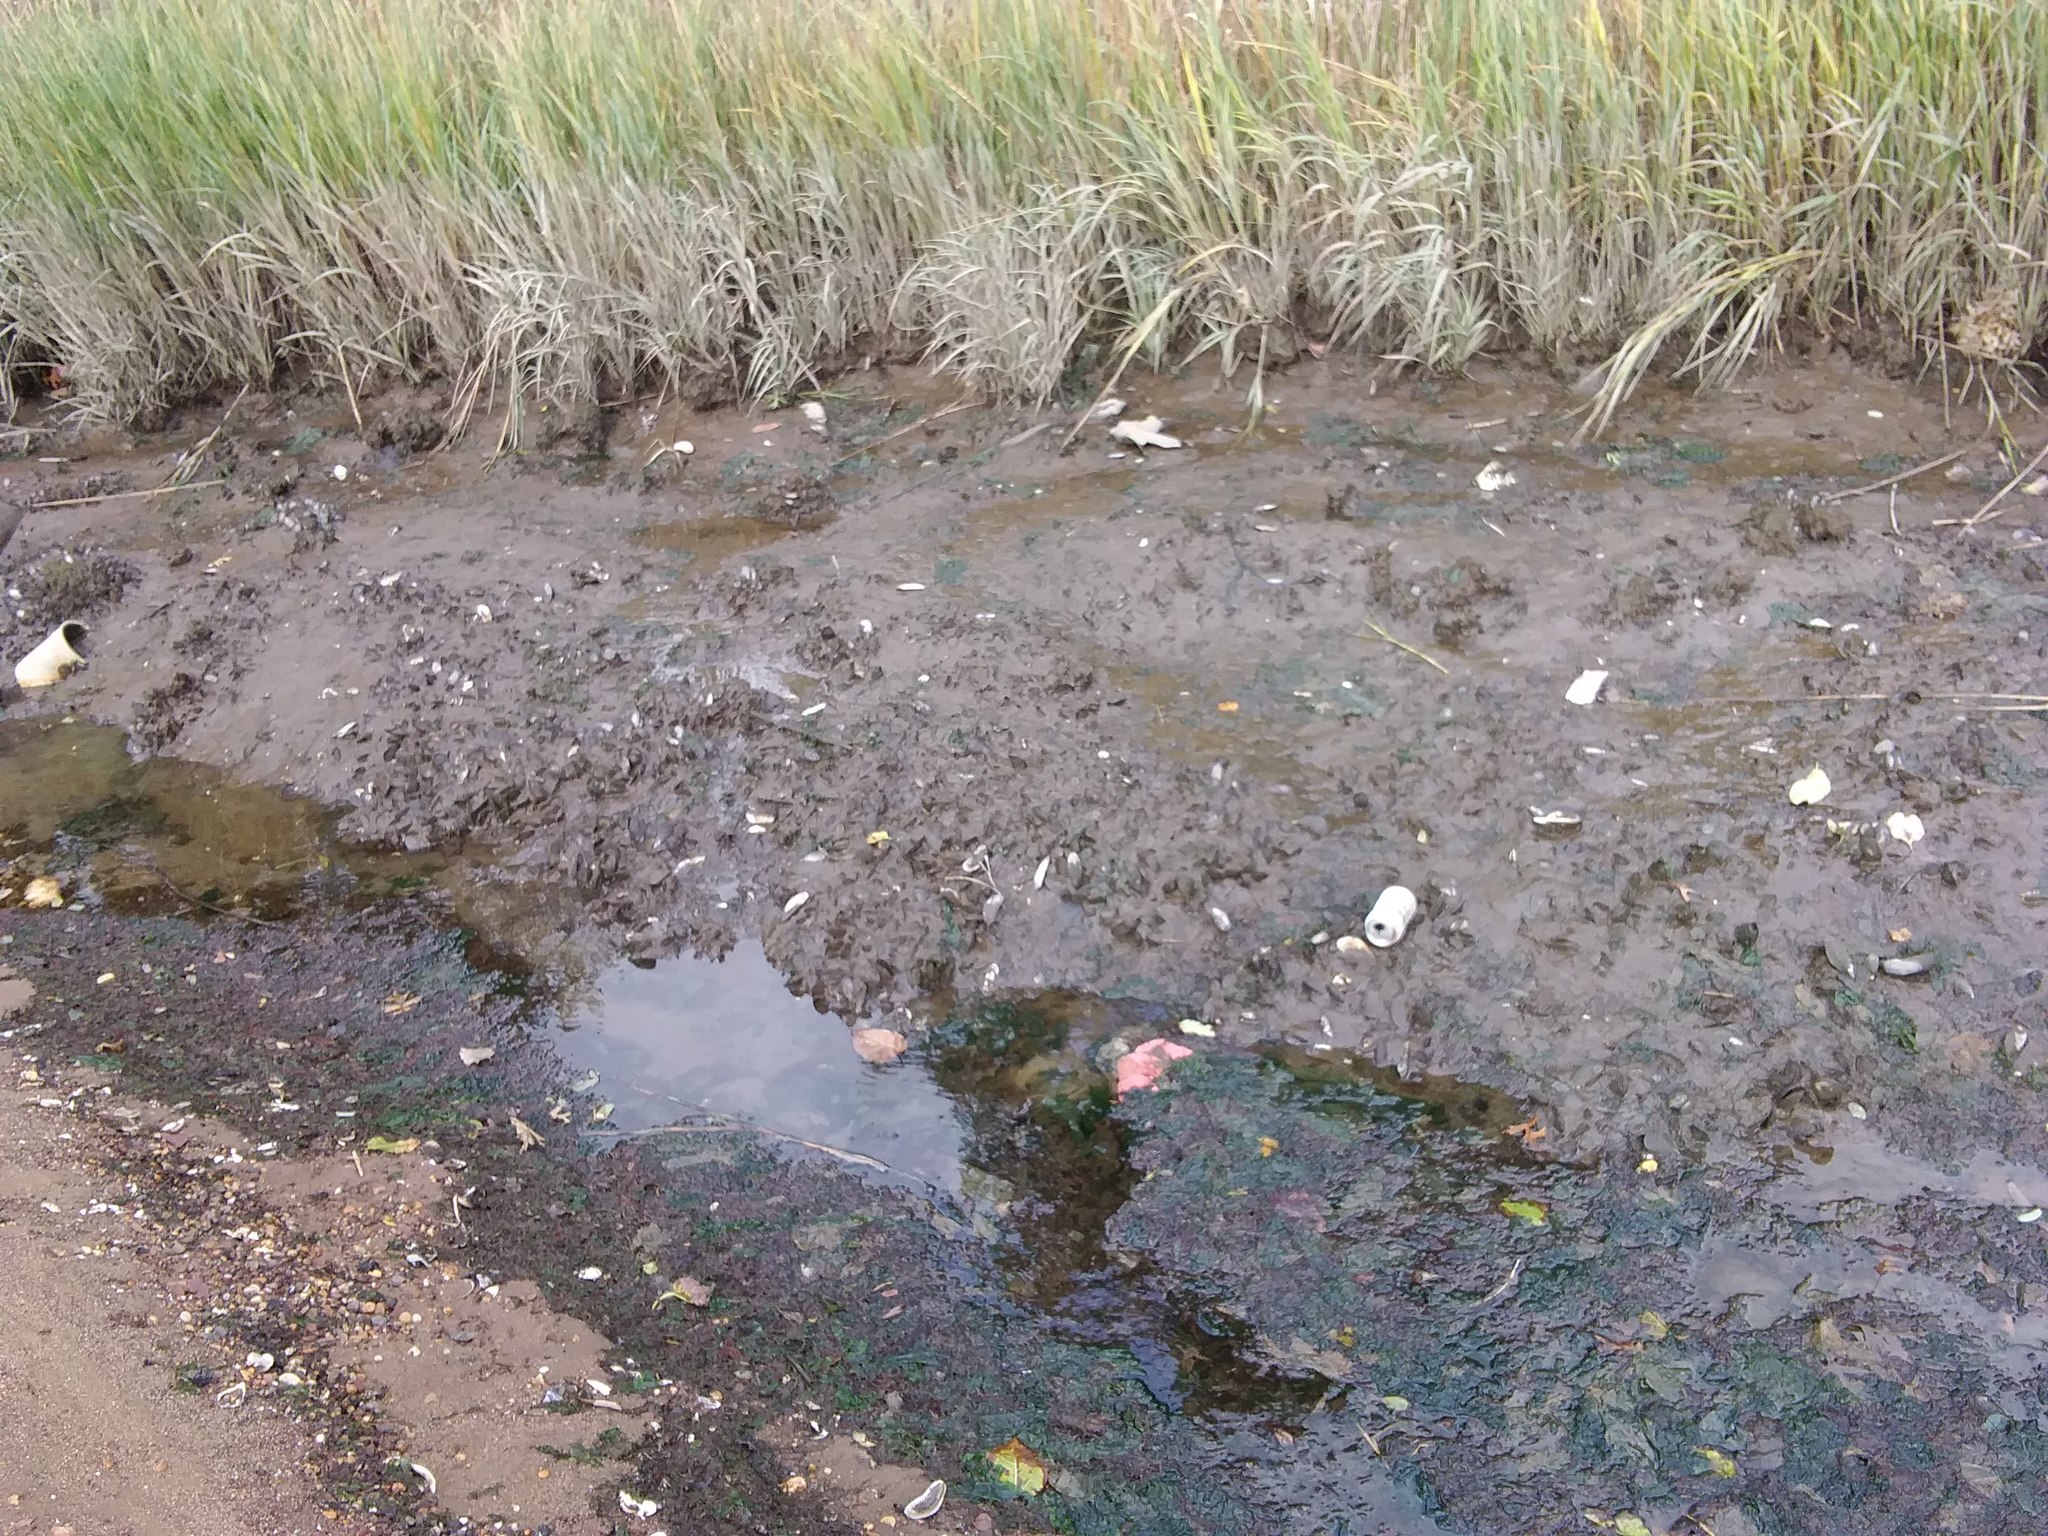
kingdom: Animalia
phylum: Mollusca
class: Bivalvia
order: Mytilida
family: Mytilidae
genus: Geukensia
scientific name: Geukensia demissa
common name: Ribbed mussel
